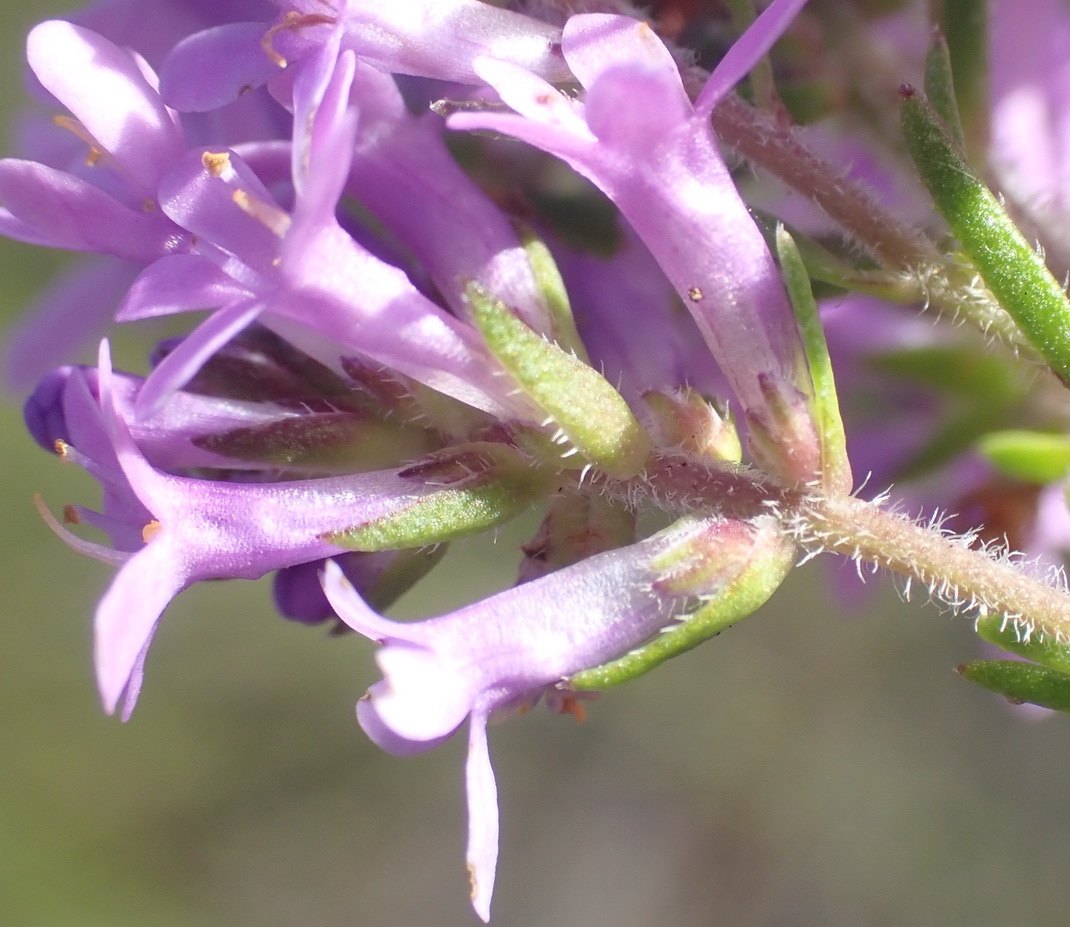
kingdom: Plantae
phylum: Tracheophyta
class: Magnoliopsida
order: Lamiales
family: Scrophulariaceae
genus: Selago
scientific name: Selago villicaulis
